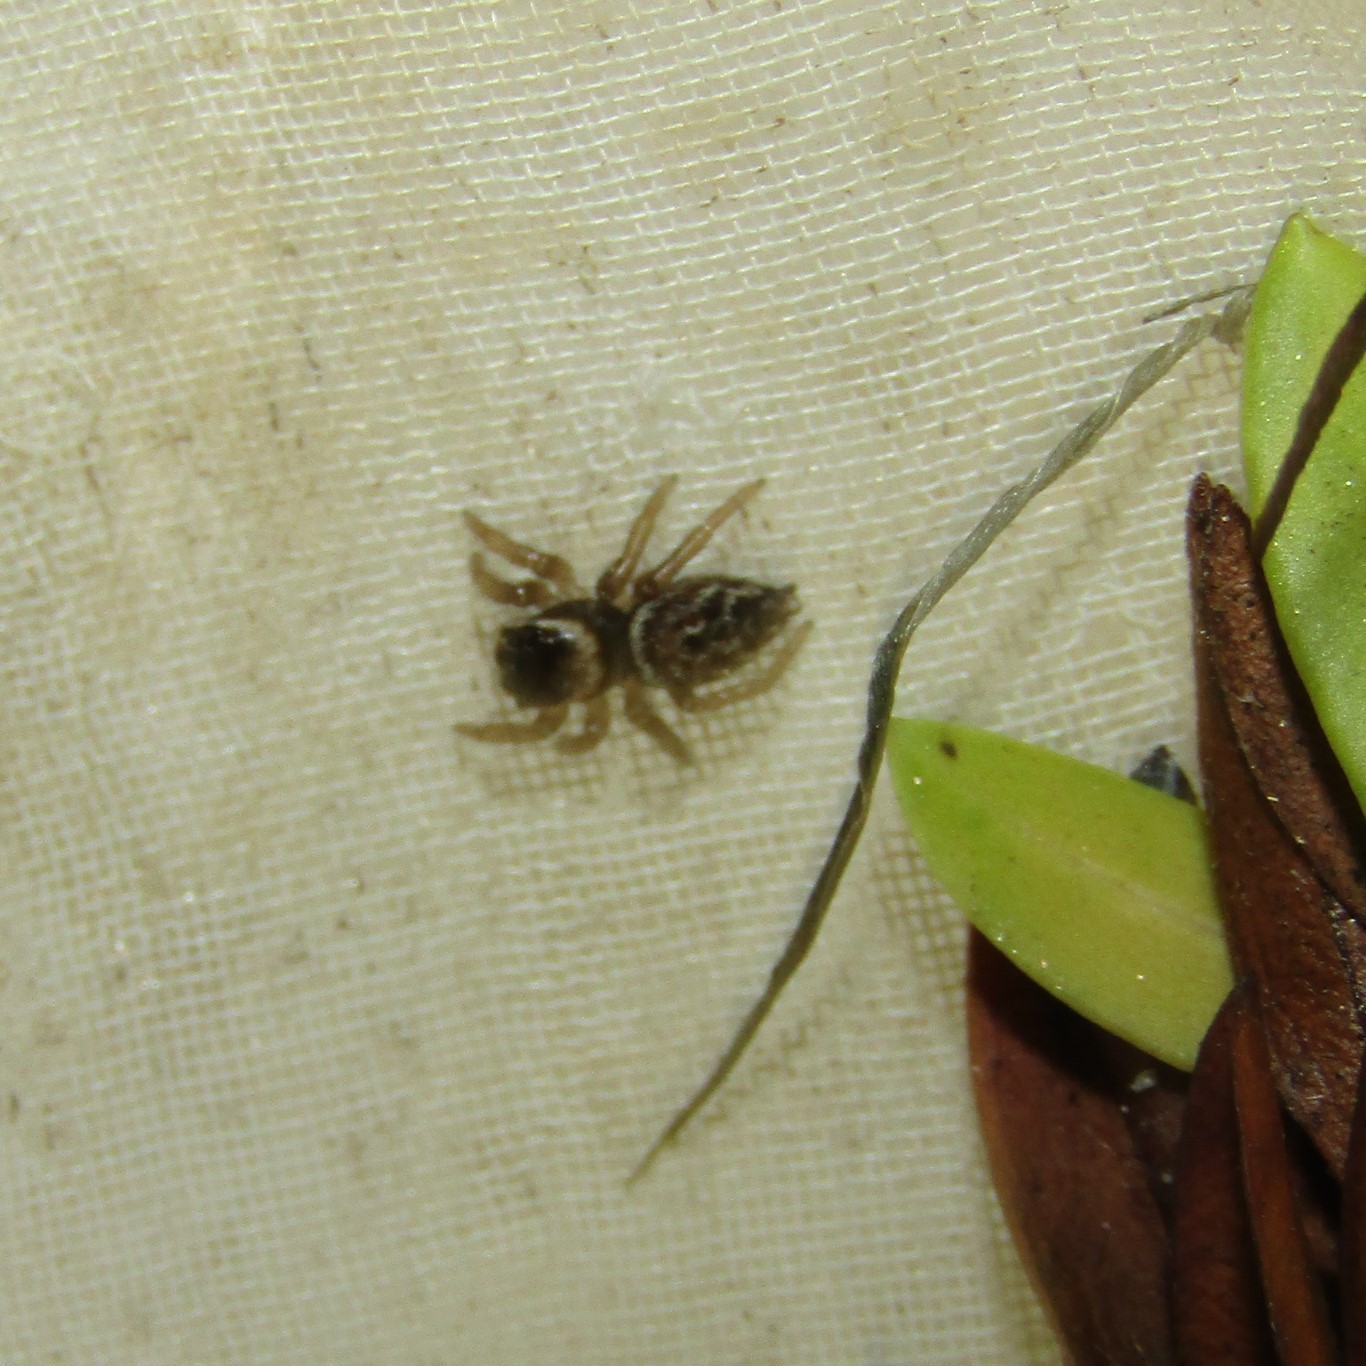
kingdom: Animalia
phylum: Arthropoda
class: Arachnida
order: Araneae
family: Salticidae
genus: Maratus
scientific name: Maratus griseus
